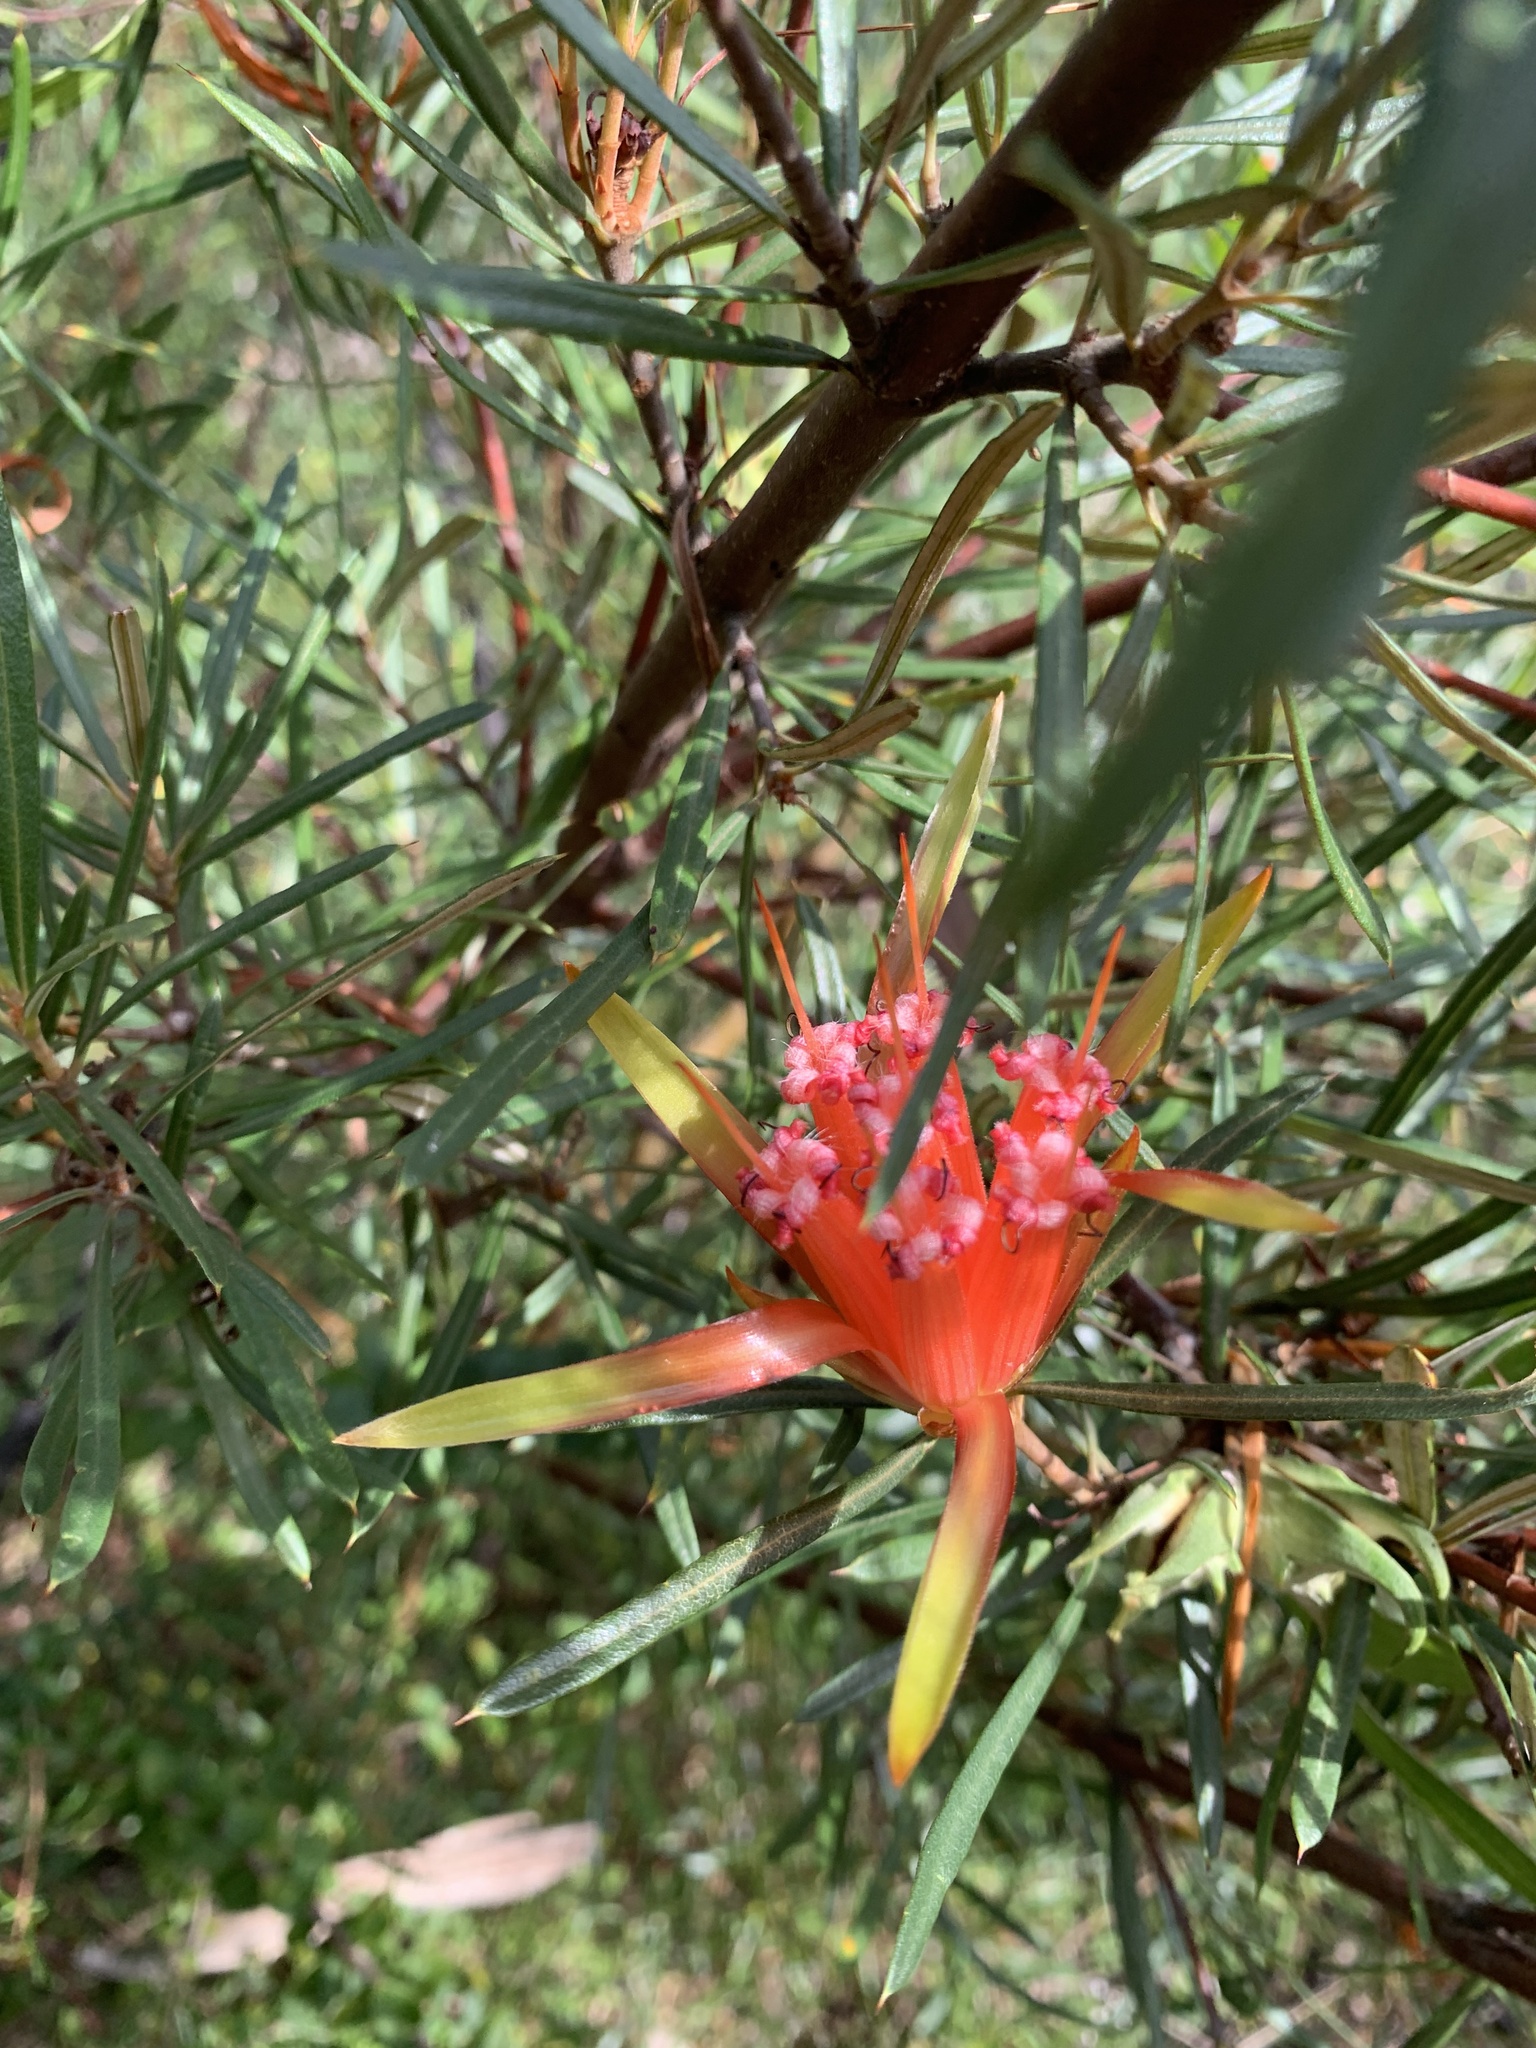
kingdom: Plantae
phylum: Tracheophyta
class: Magnoliopsida
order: Proteales
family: Proteaceae
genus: Lambertia
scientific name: Lambertia formosa
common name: Mountain-devil
